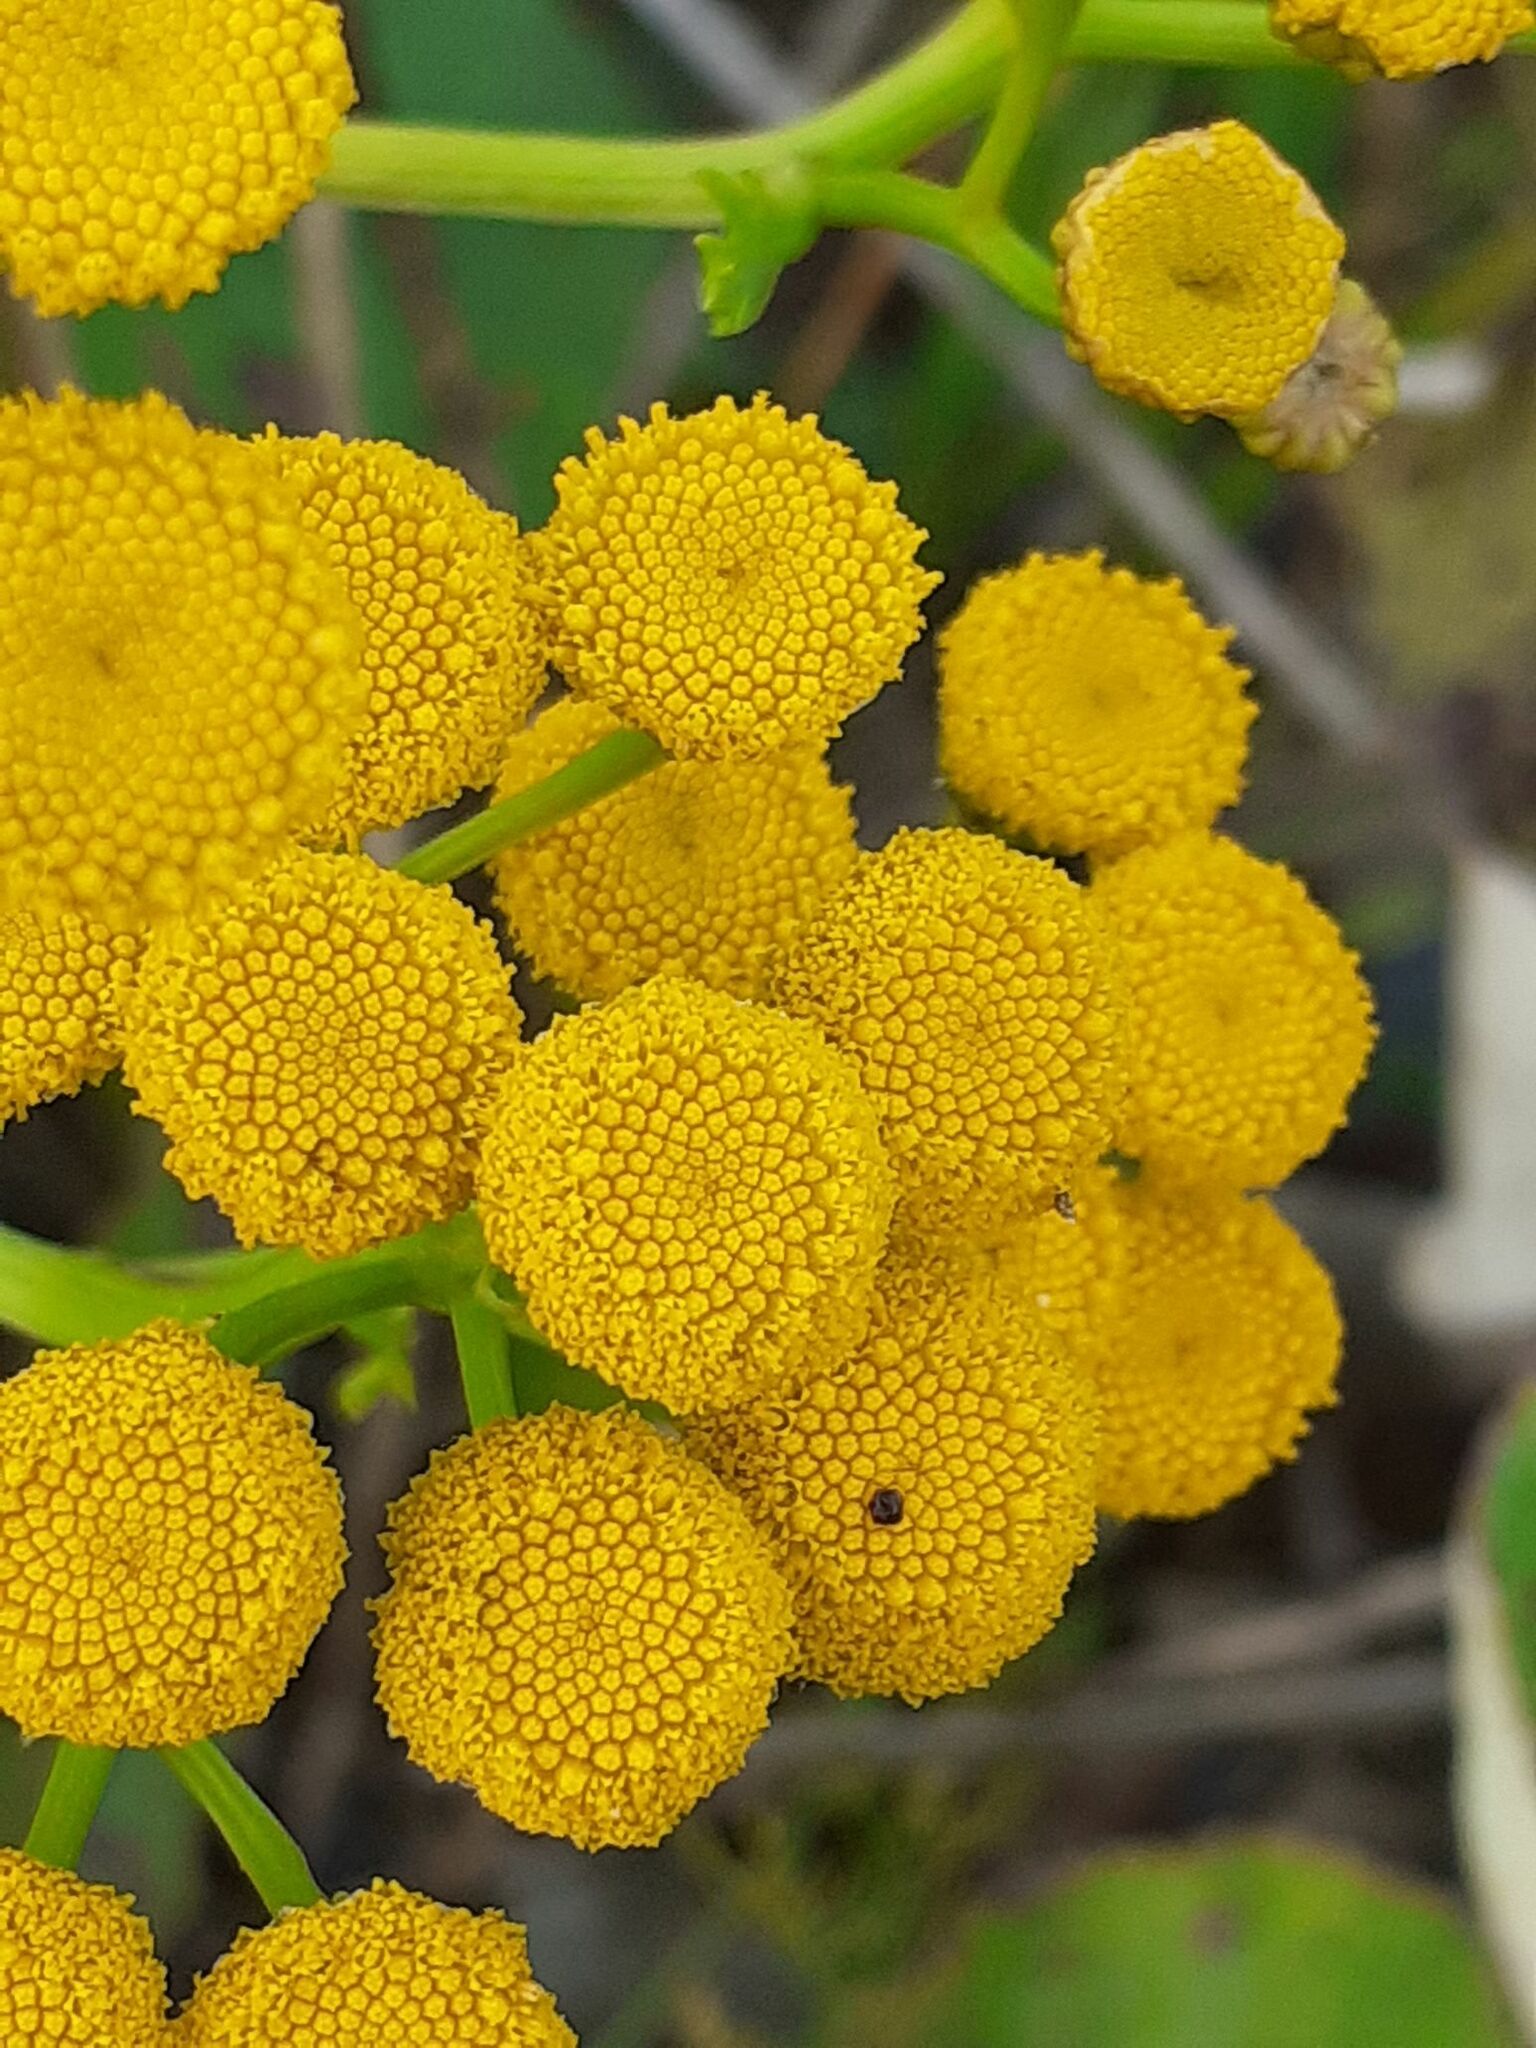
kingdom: Plantae
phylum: Tracheophyta
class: Magnoliopsida
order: Asterales
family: Asteraceae
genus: Tanacetum
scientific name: Tanacetum vulgare
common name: Common tansy
